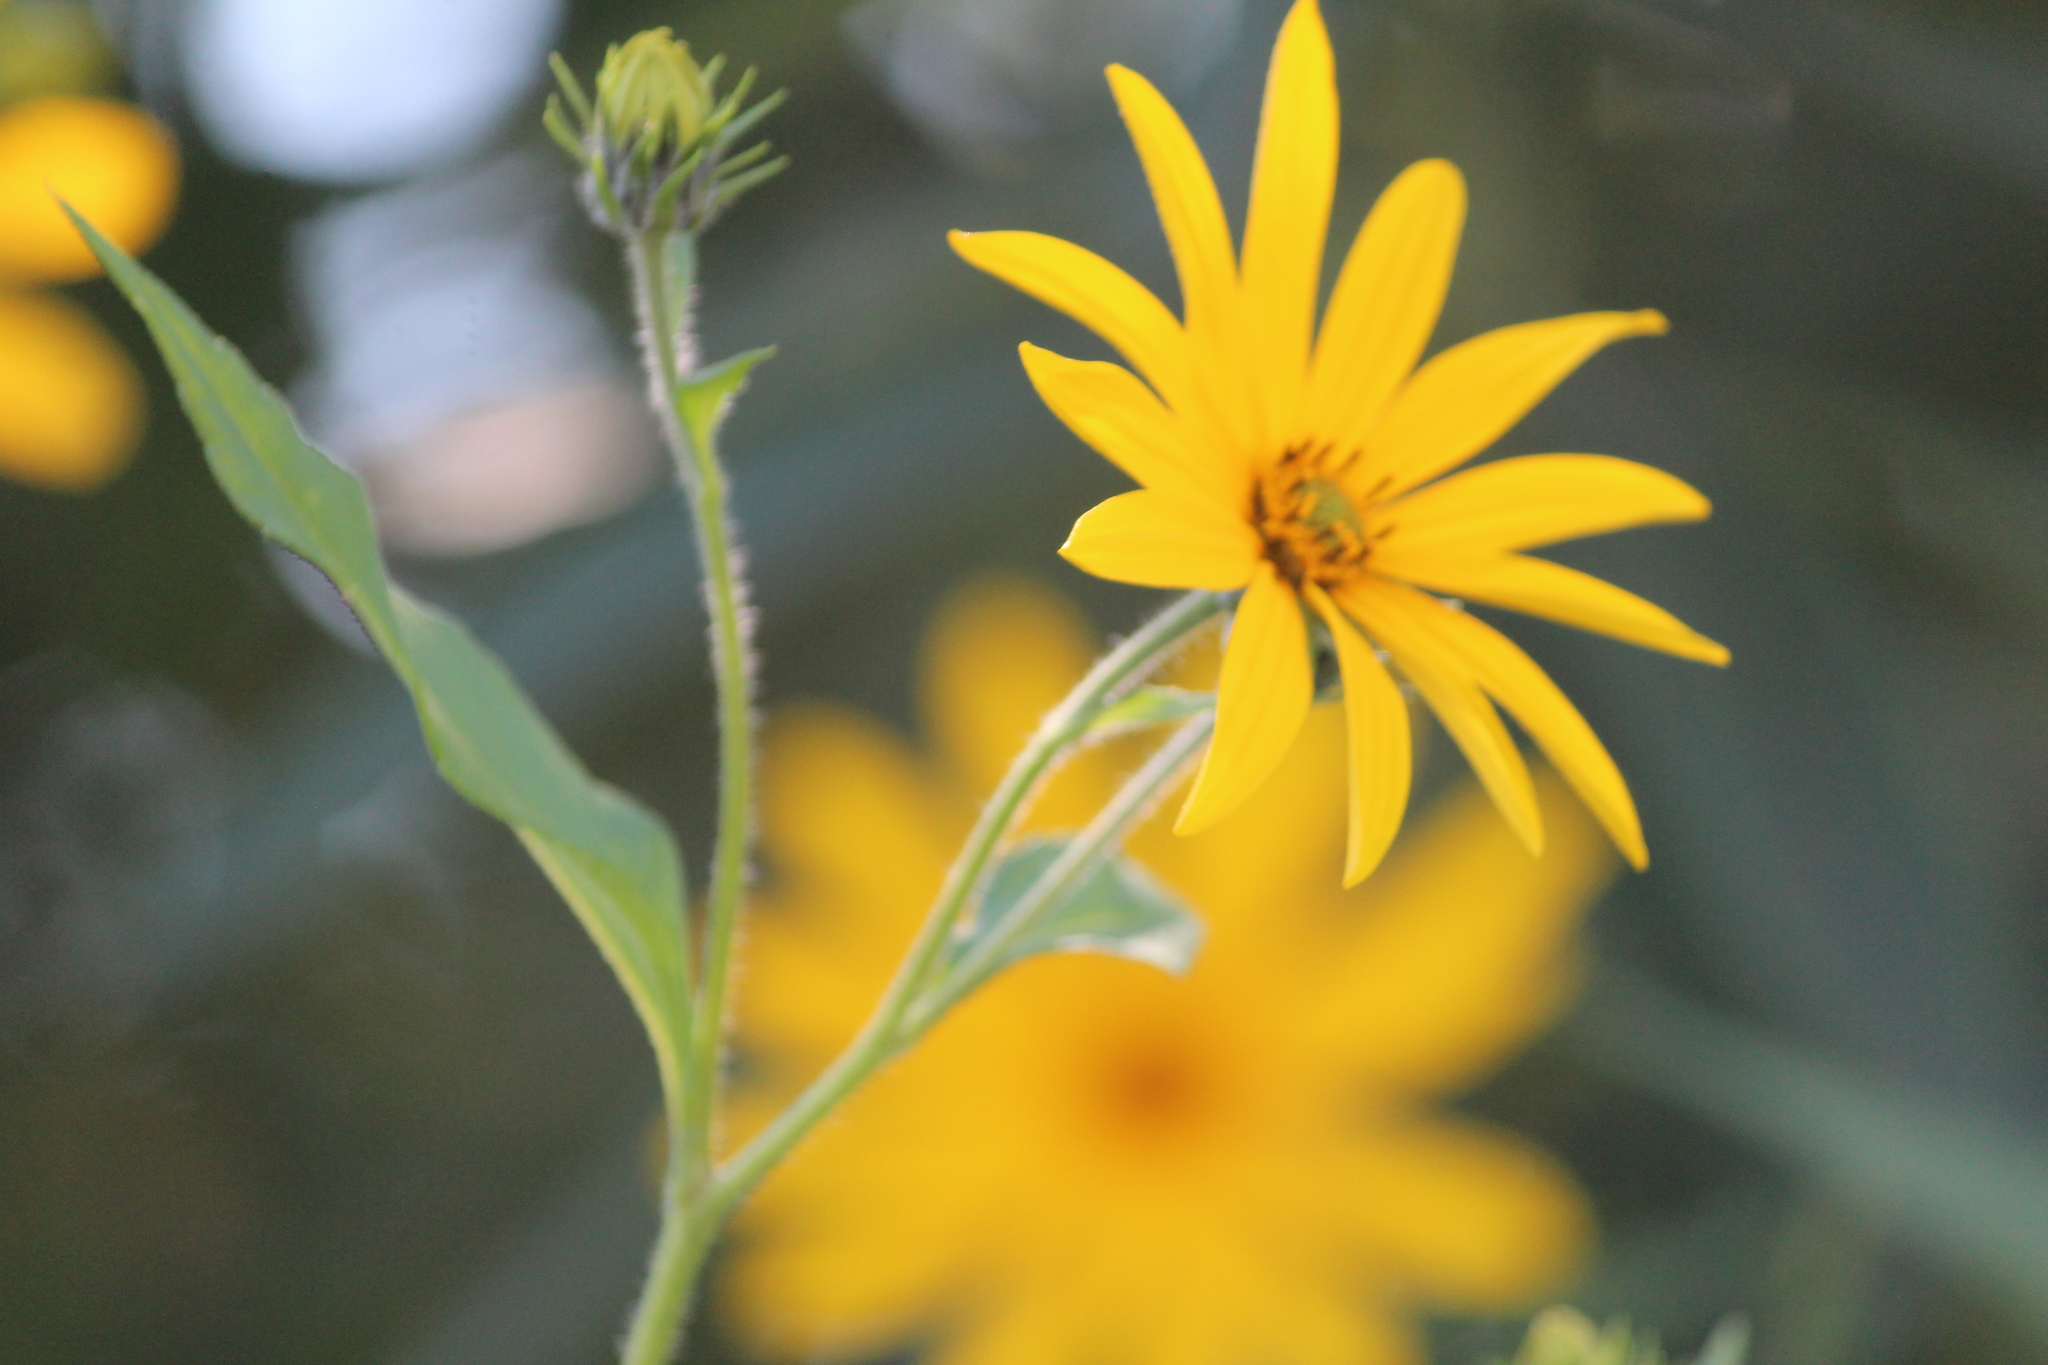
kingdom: Plantae
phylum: Tracheophyta
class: Magnoliopsida
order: Asterales
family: Asteraceae
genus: Helianthus
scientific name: Helianthus tuberosus
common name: Jerusalem artichoke
